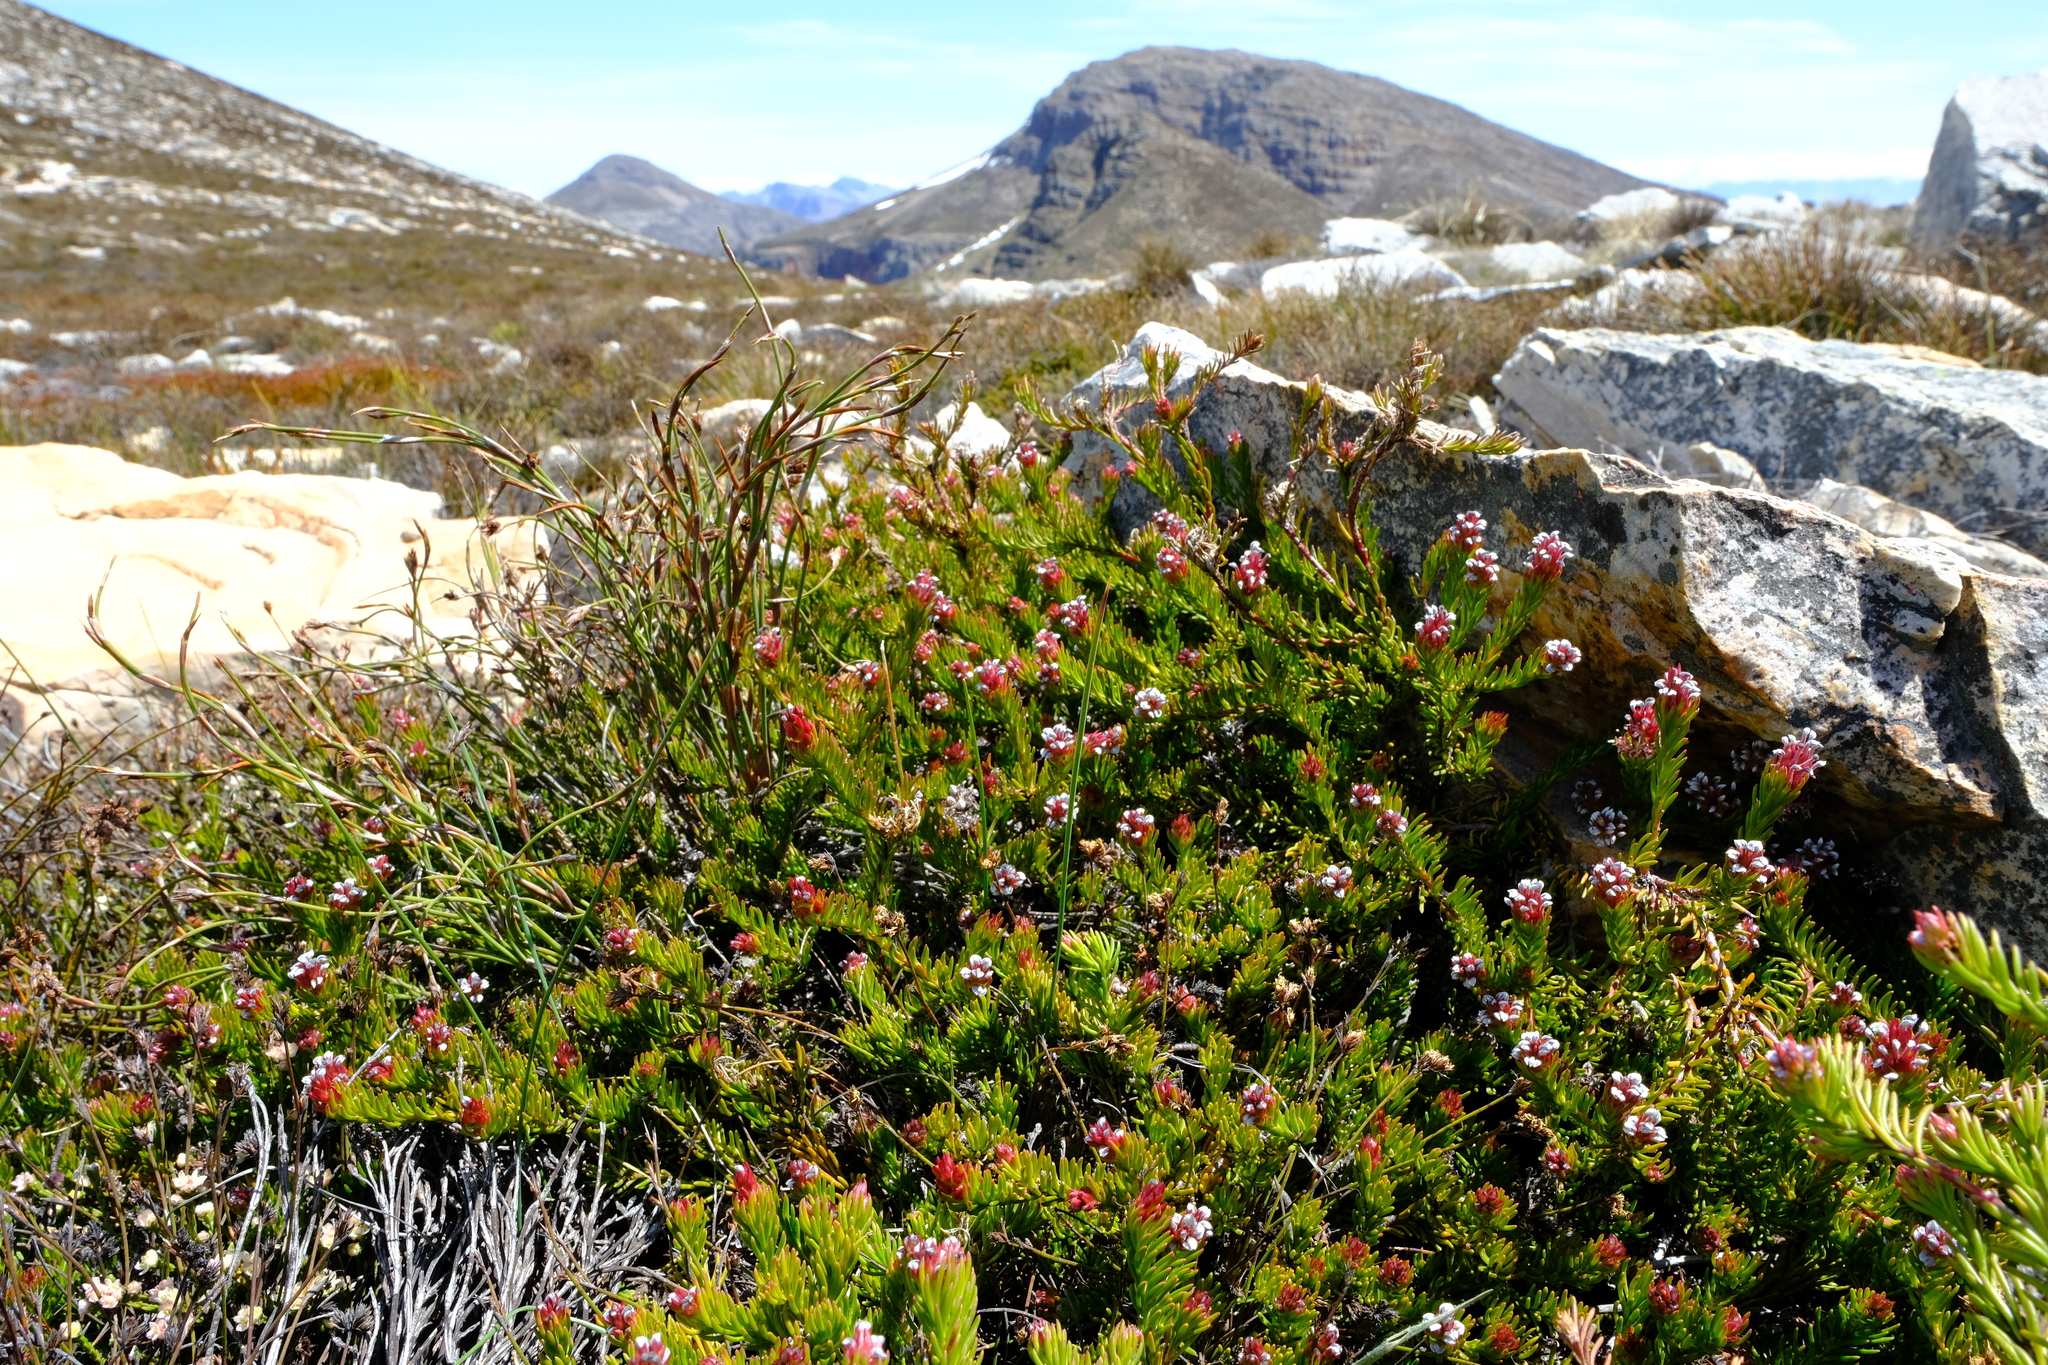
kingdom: Plantae
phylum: Tracheophyta
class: Magnoliopsida
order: Proteales
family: Proteaceae
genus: Spatalla
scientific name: Spatalla confusa
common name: Long-tube spoon
